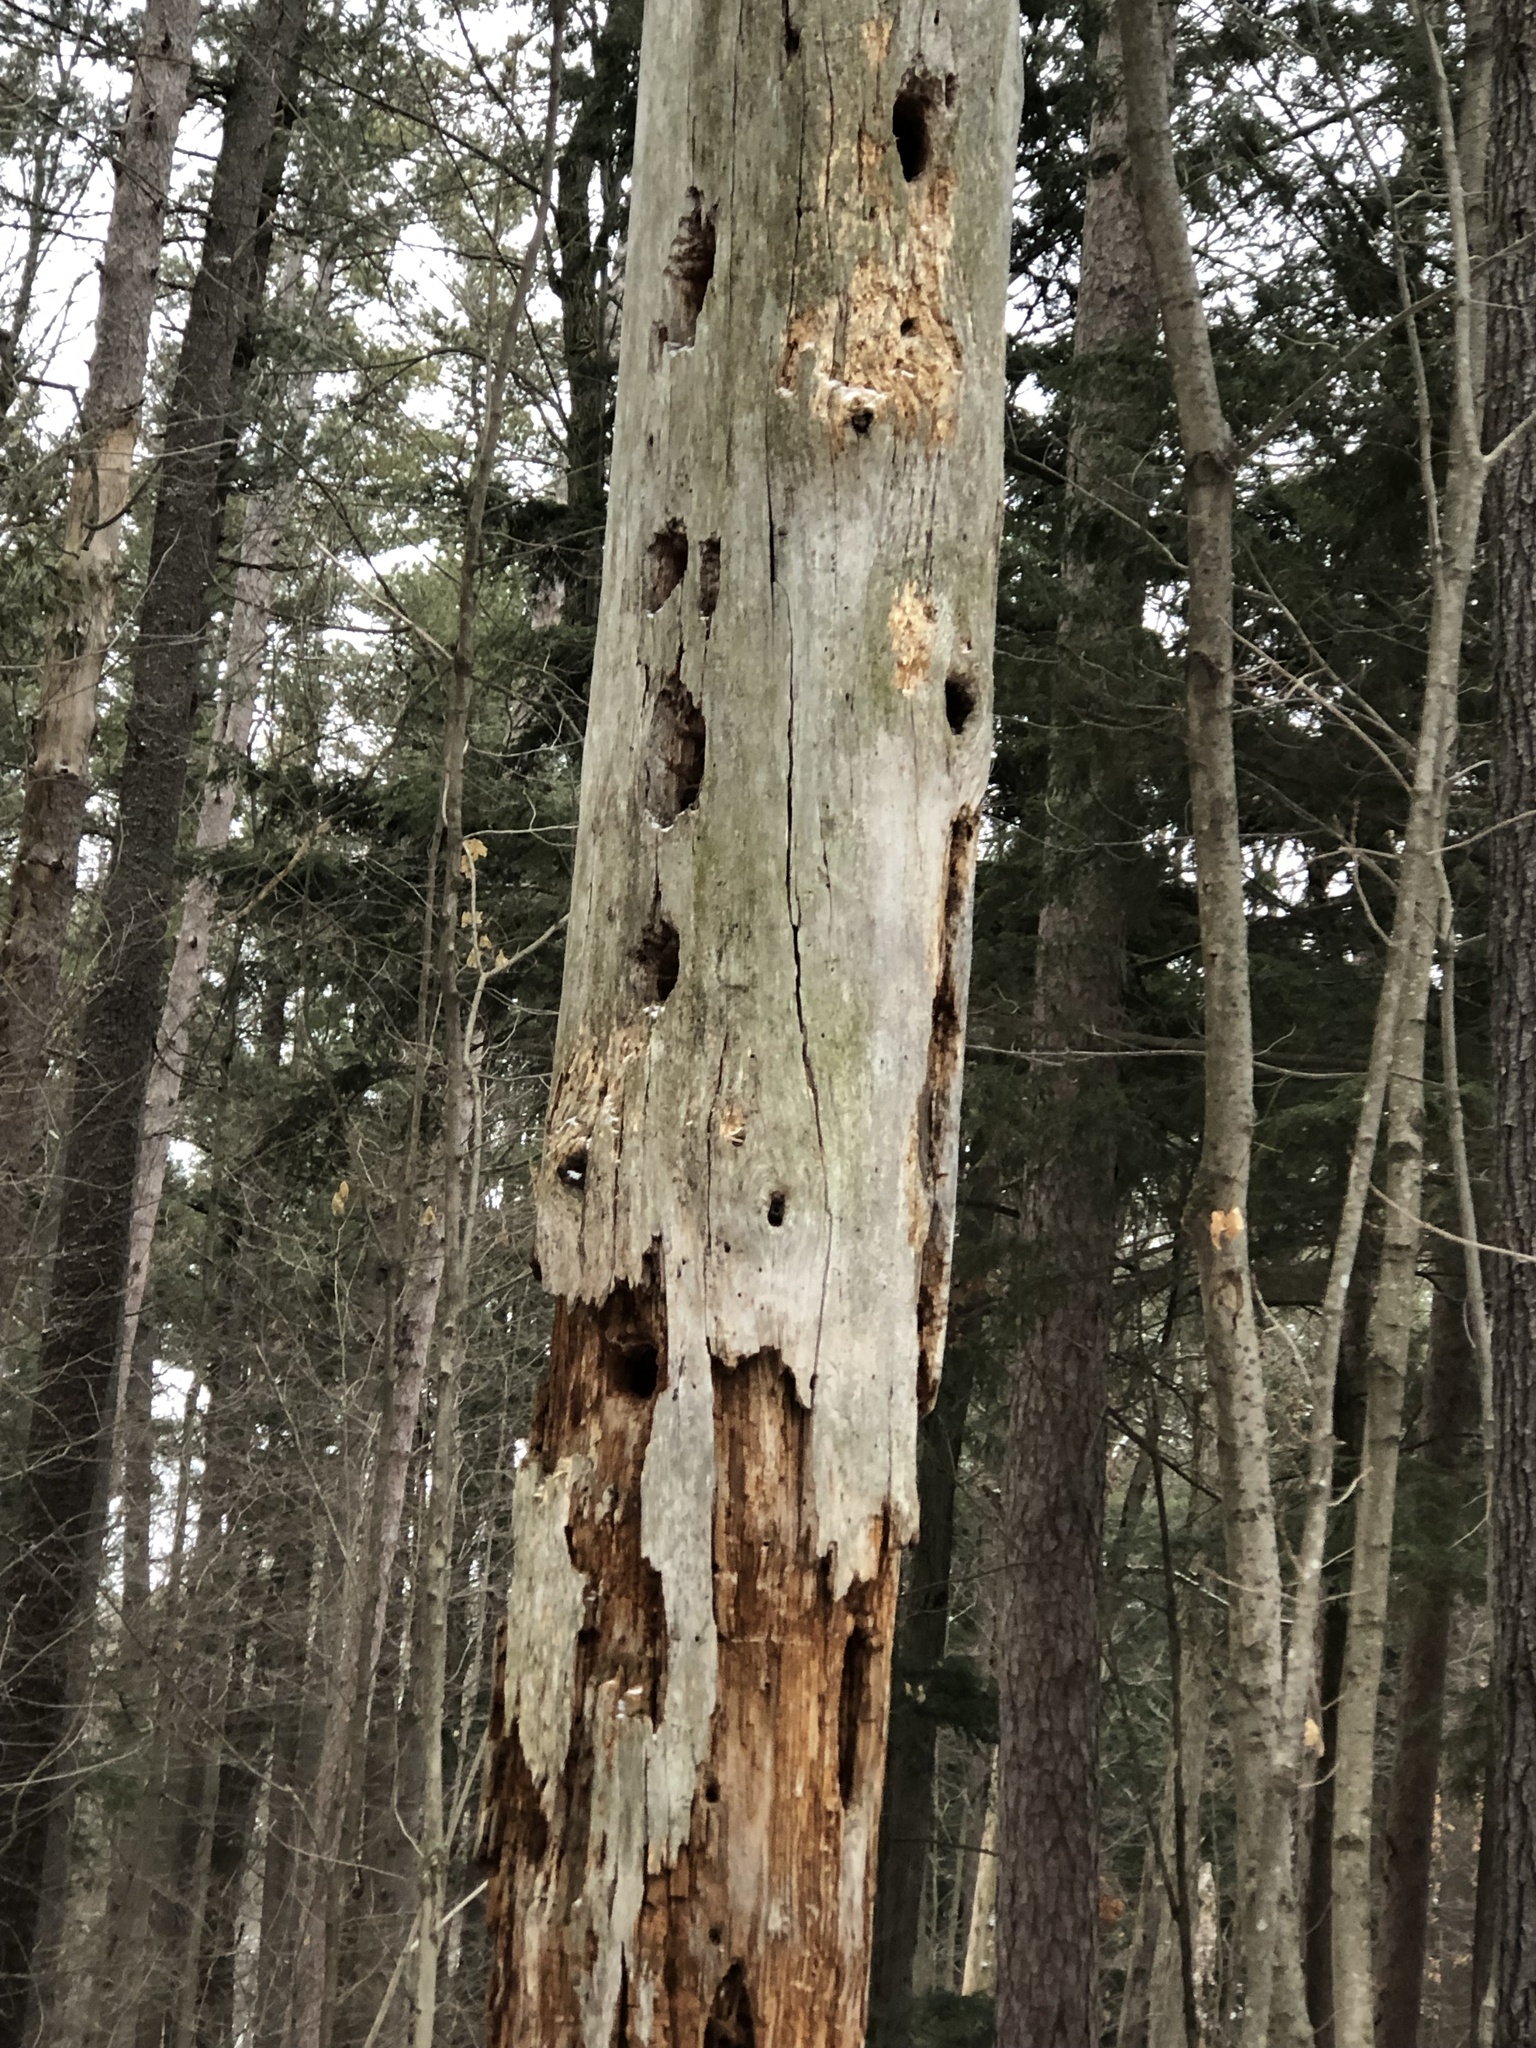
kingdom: Animalia
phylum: Chordata
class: Aves
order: Piciformes
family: Picidae
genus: Dryocopus
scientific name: Dryocopus pileatus
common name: Pileated woodpecker
